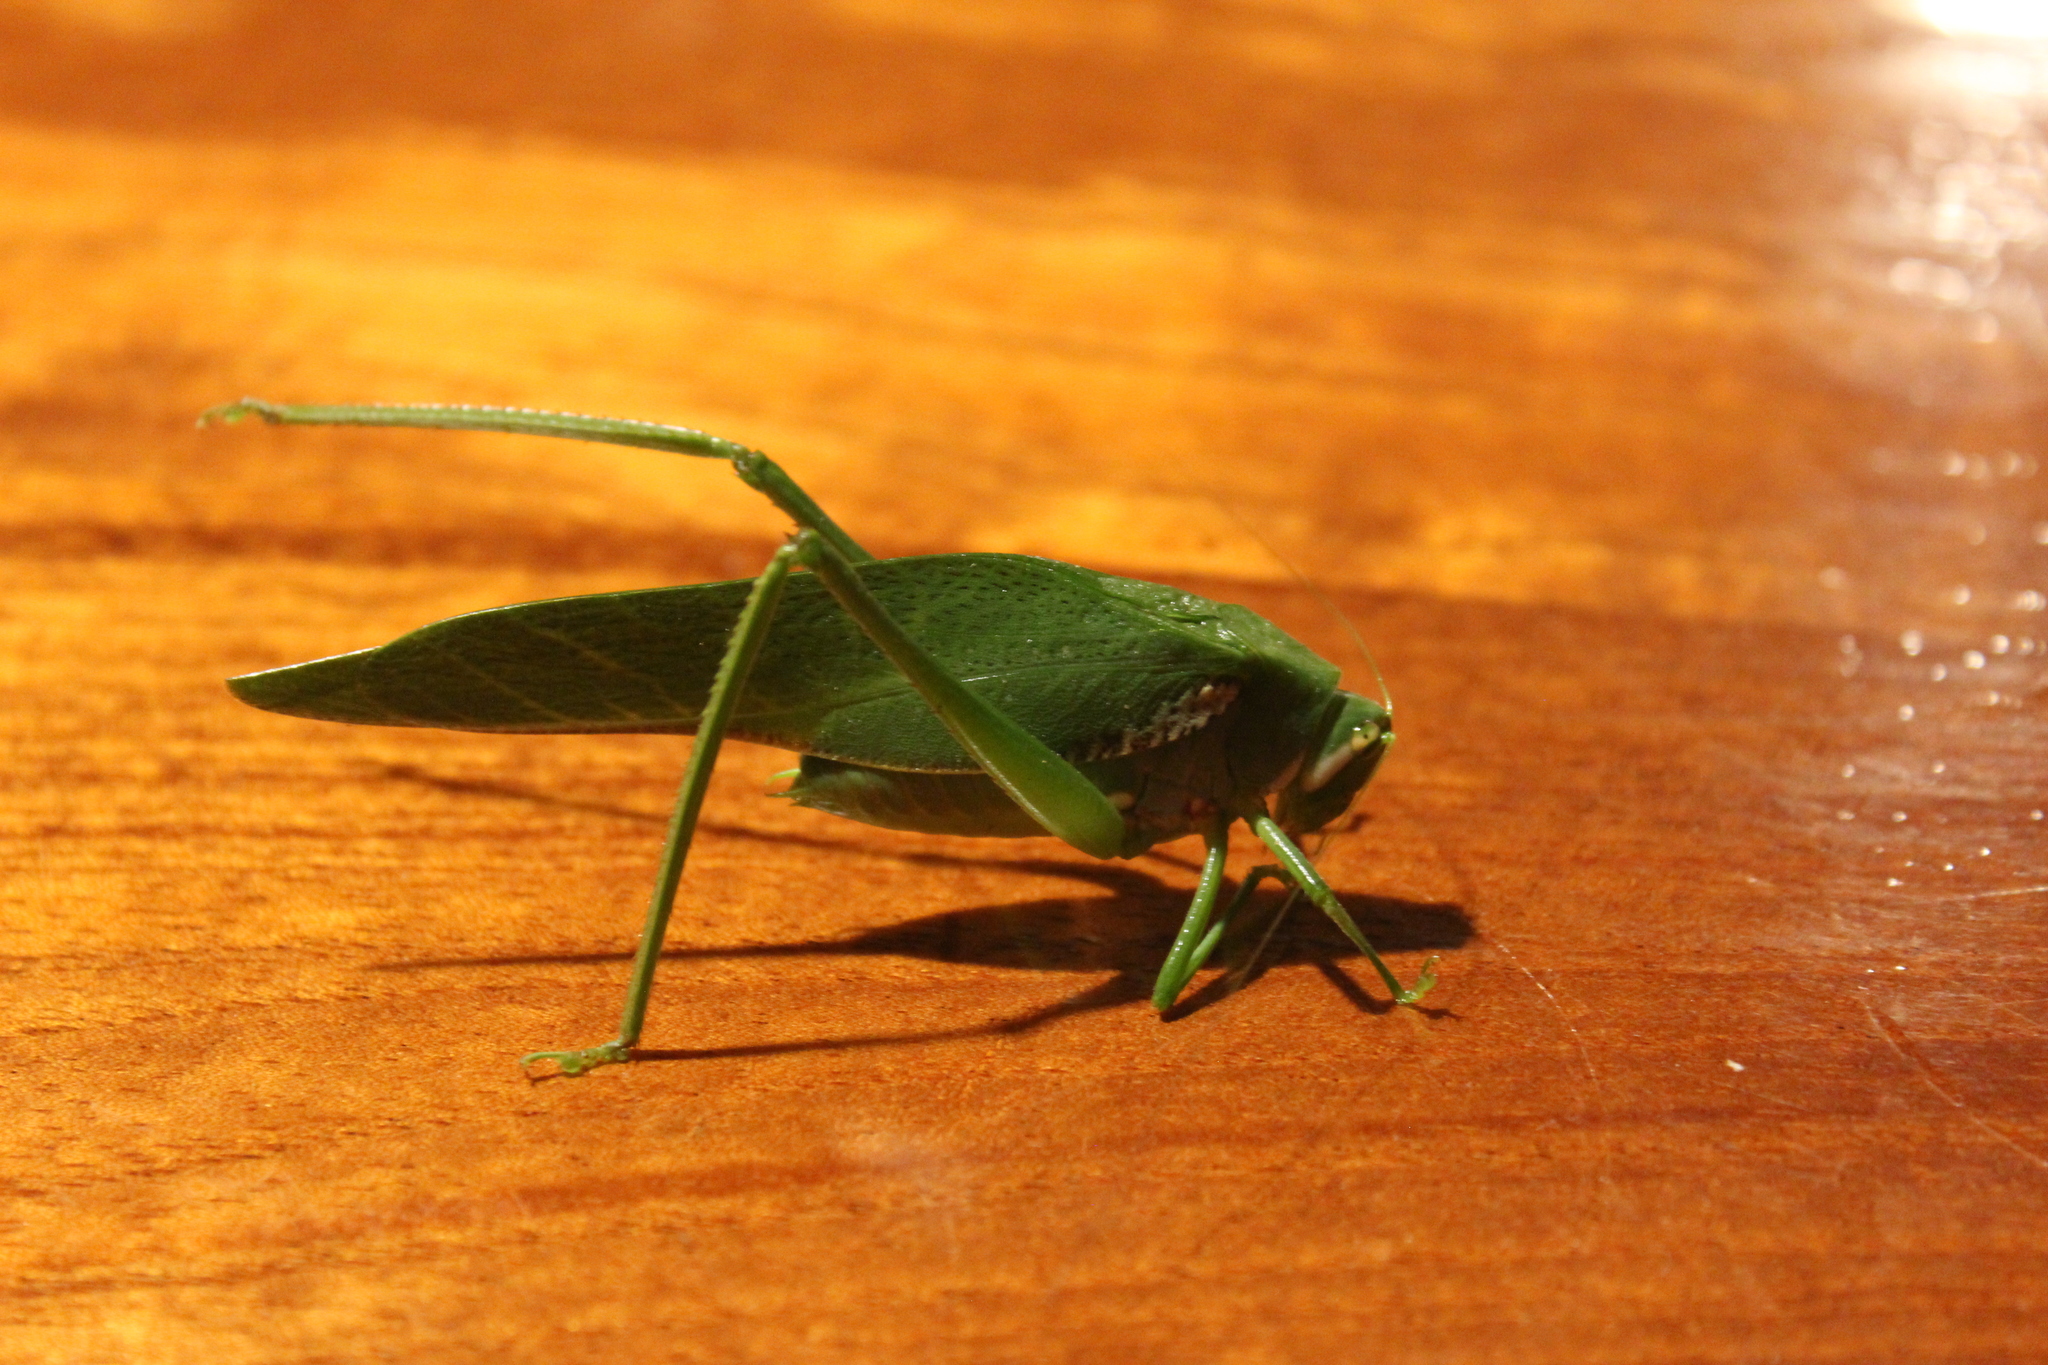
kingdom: Animalia
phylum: Arthropoda
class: Insecta
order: Orthoptera
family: Tettigoniidae
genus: Philophyllia
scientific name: Philophyllia guttulata
